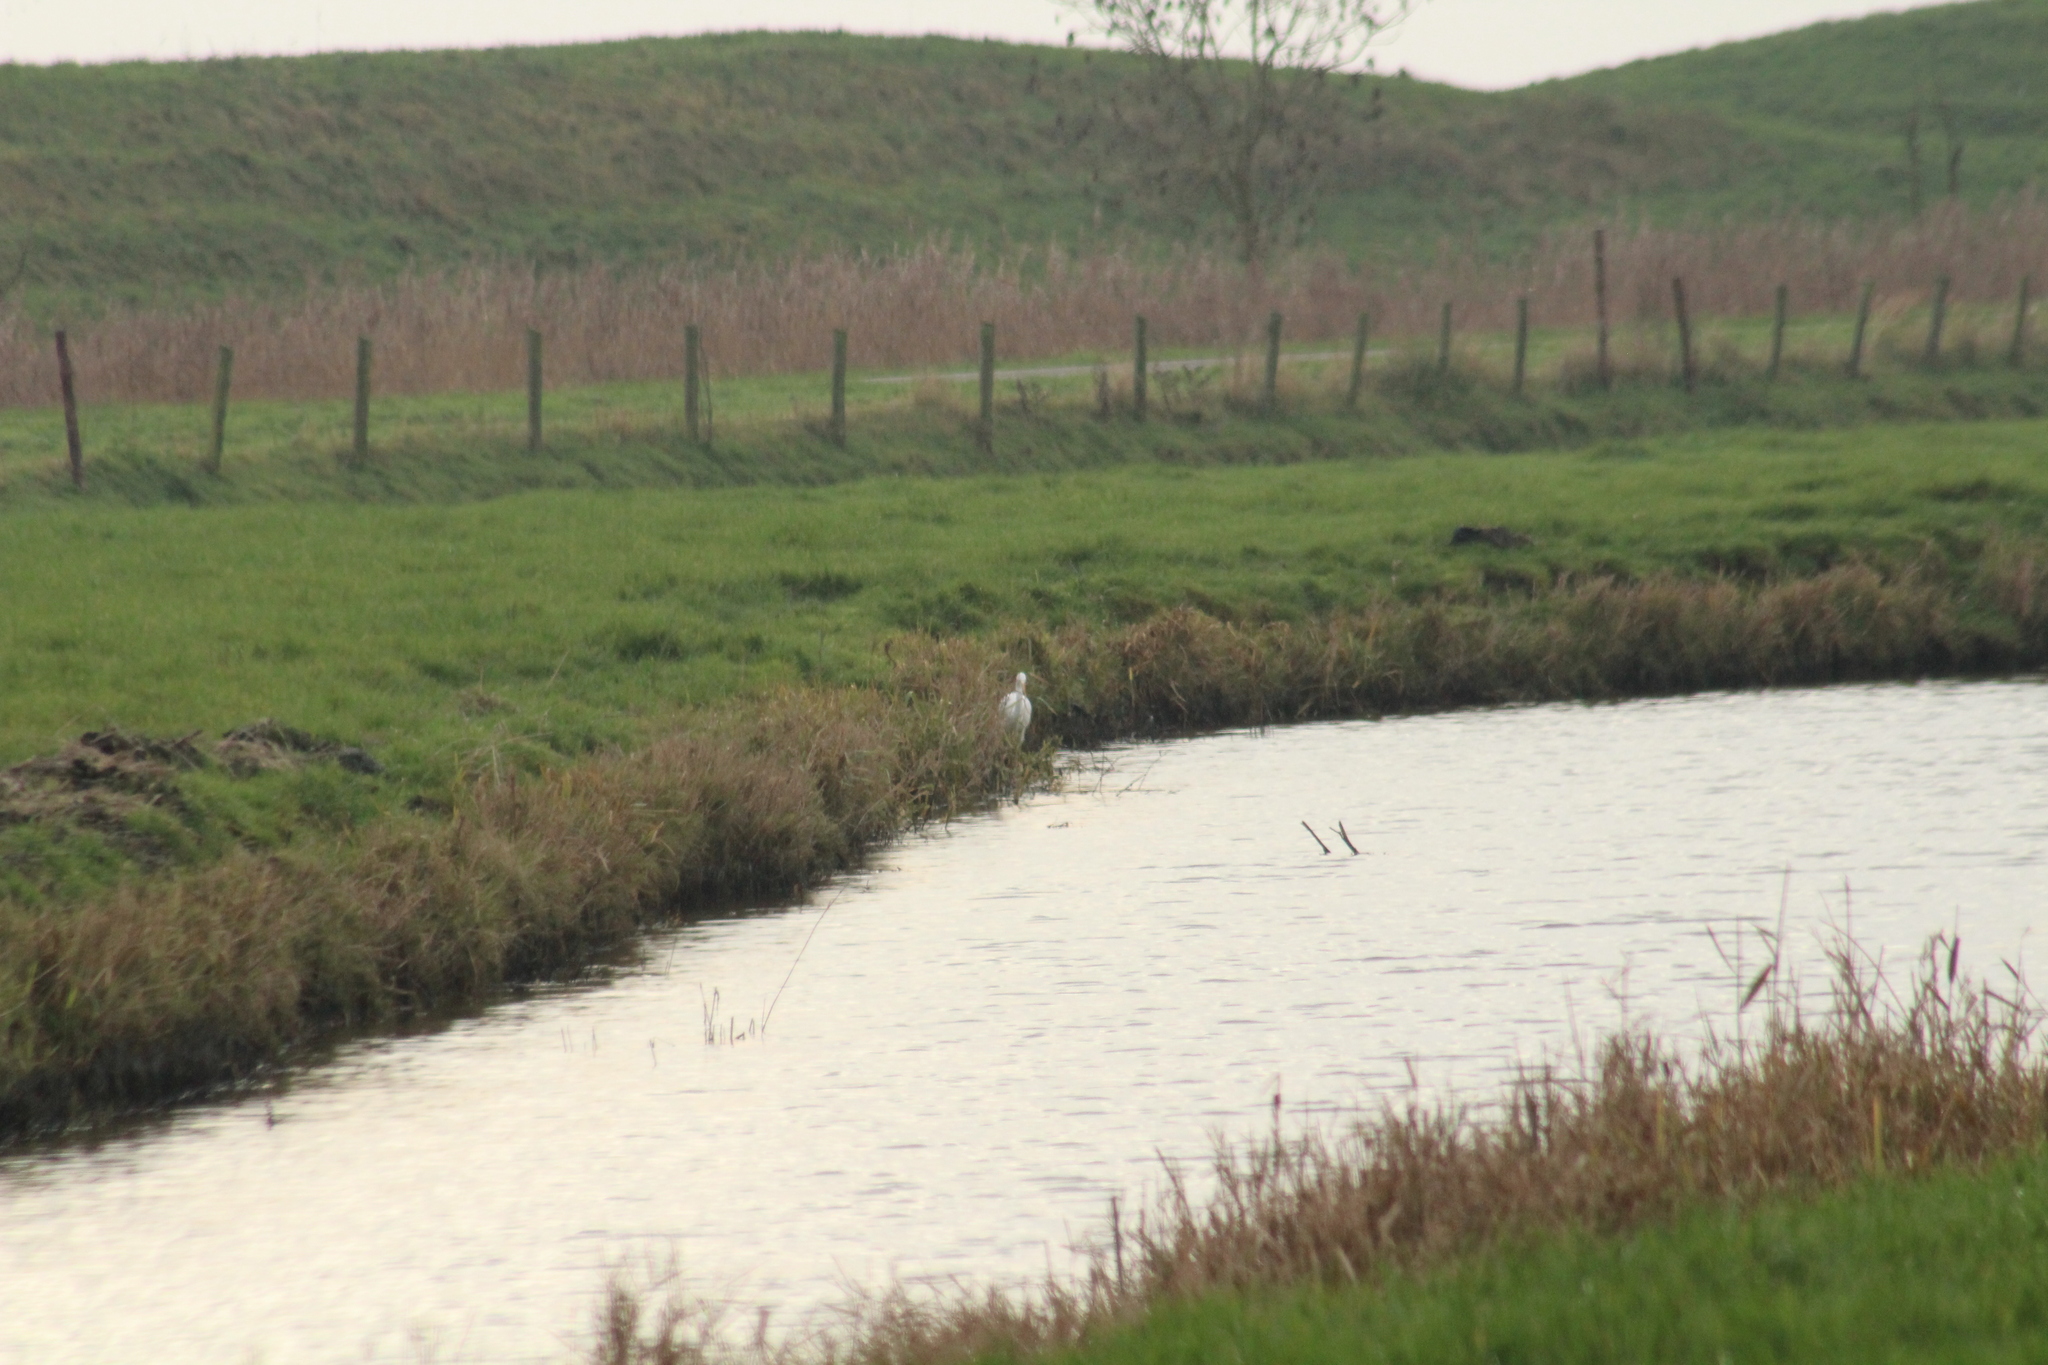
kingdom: Animalia
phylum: Chordata
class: Aves
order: Pelecaniformes
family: Ardeidae
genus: Ardea
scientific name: Ardea alba
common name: Great egret
